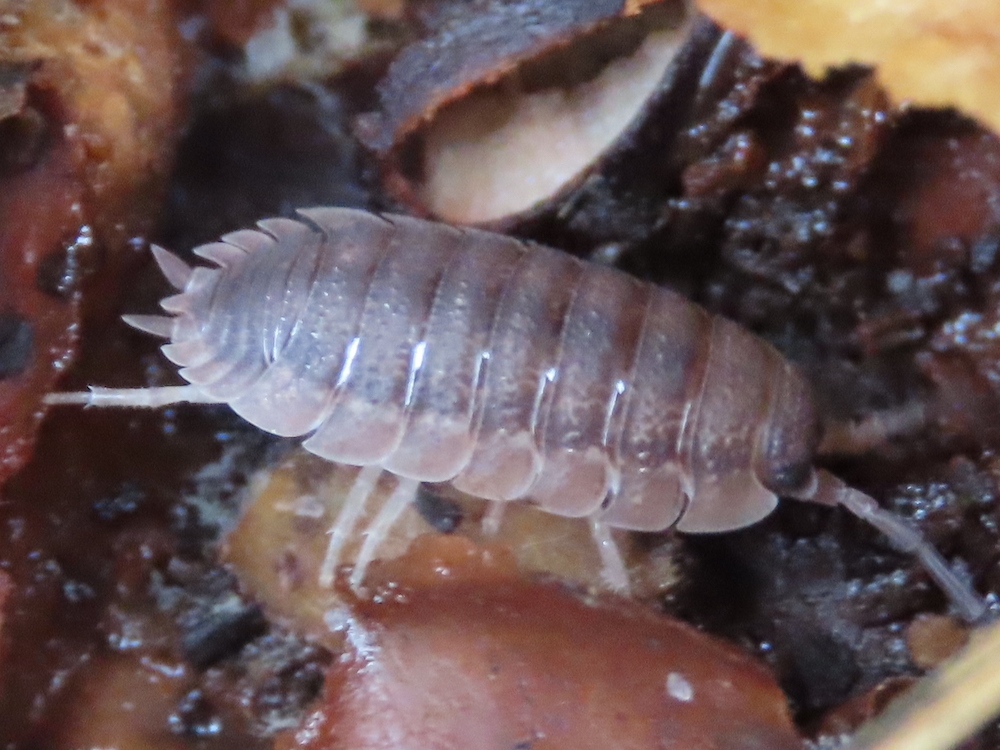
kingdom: Animalia
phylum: Arthropoda
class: Malacostraca
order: Isopoda
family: Porcellionidae
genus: Porcellio
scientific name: Porcellio scaber
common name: Common rough woodlouse
